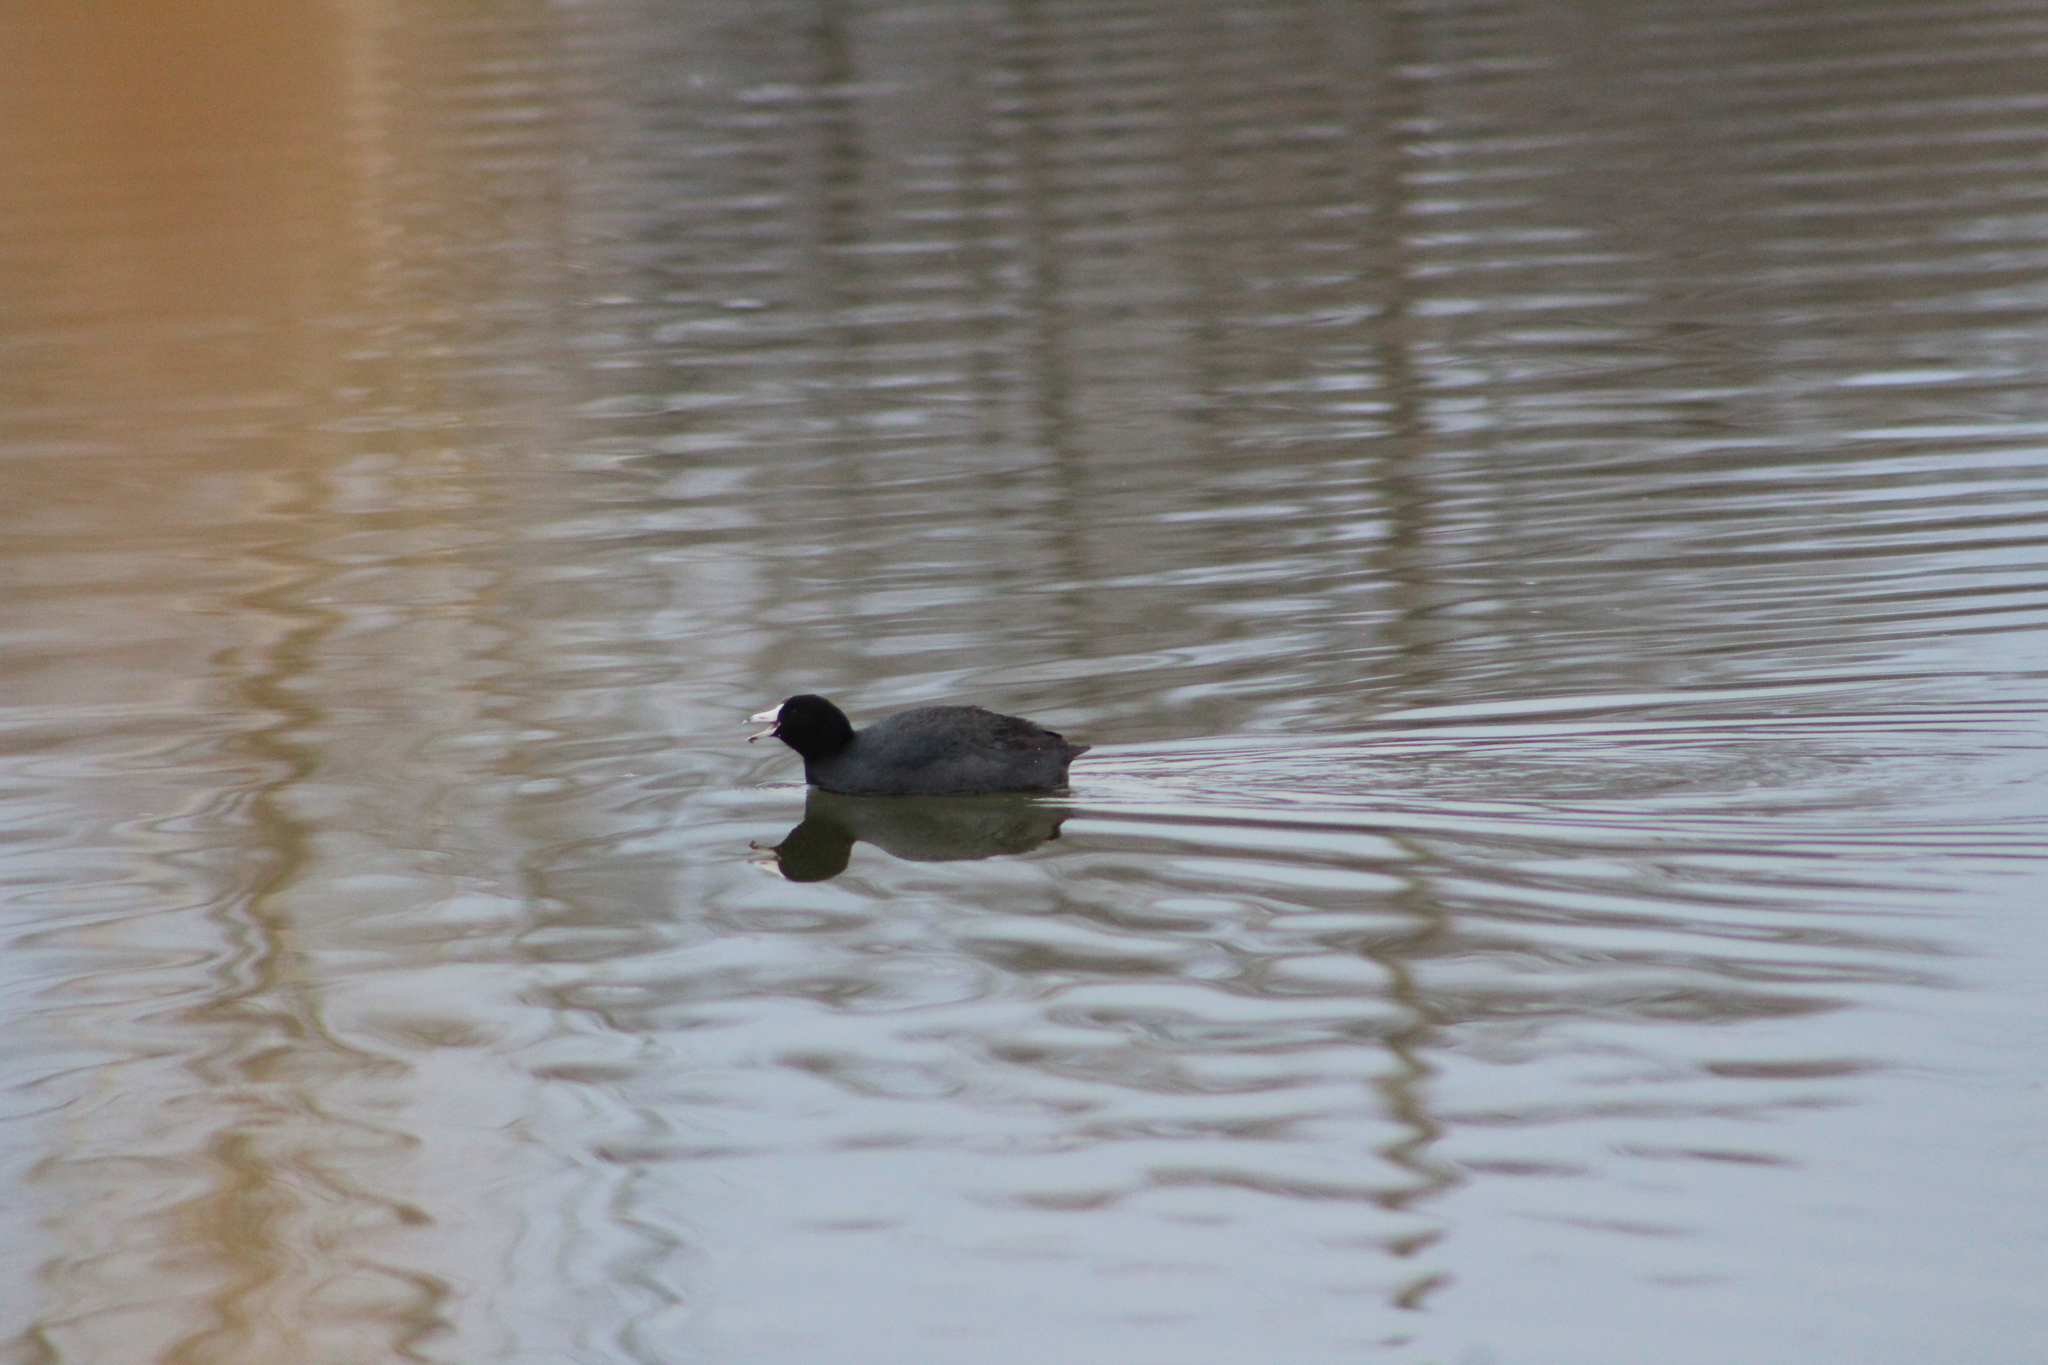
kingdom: Animalia
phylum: Chordata
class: Aves
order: Gruiformes
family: Rallidae
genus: Fulica
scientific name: Fulica americana
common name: American coot
